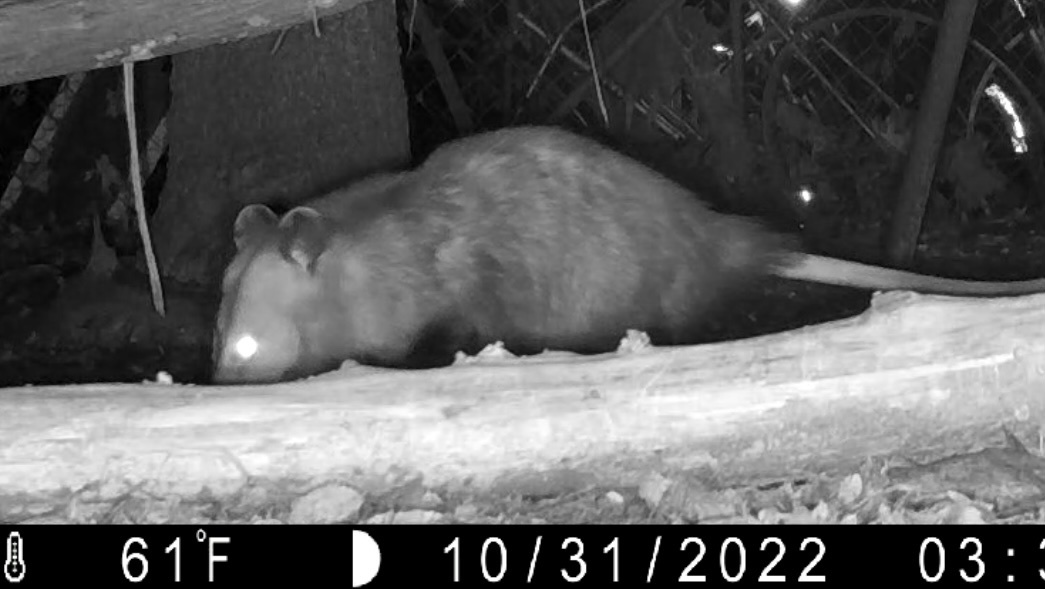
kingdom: Animalia
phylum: Chordata
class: Mammalia
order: Didelphimorphia
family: Didelphidae
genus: Didelphis
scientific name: Didelphis virginiana
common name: Virginia opossum
